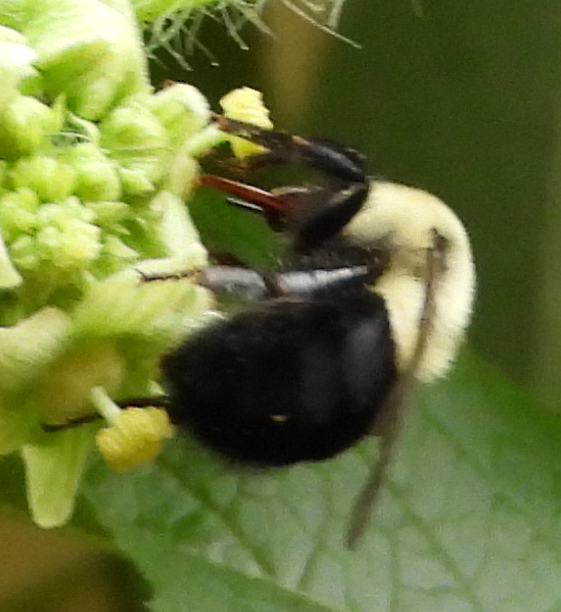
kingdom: Animalia
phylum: Arthropoda
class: Insecta
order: Hymenoptera
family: Apidae
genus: Bombus
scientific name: Bombus impatiens
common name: Common eastern bumble bee
